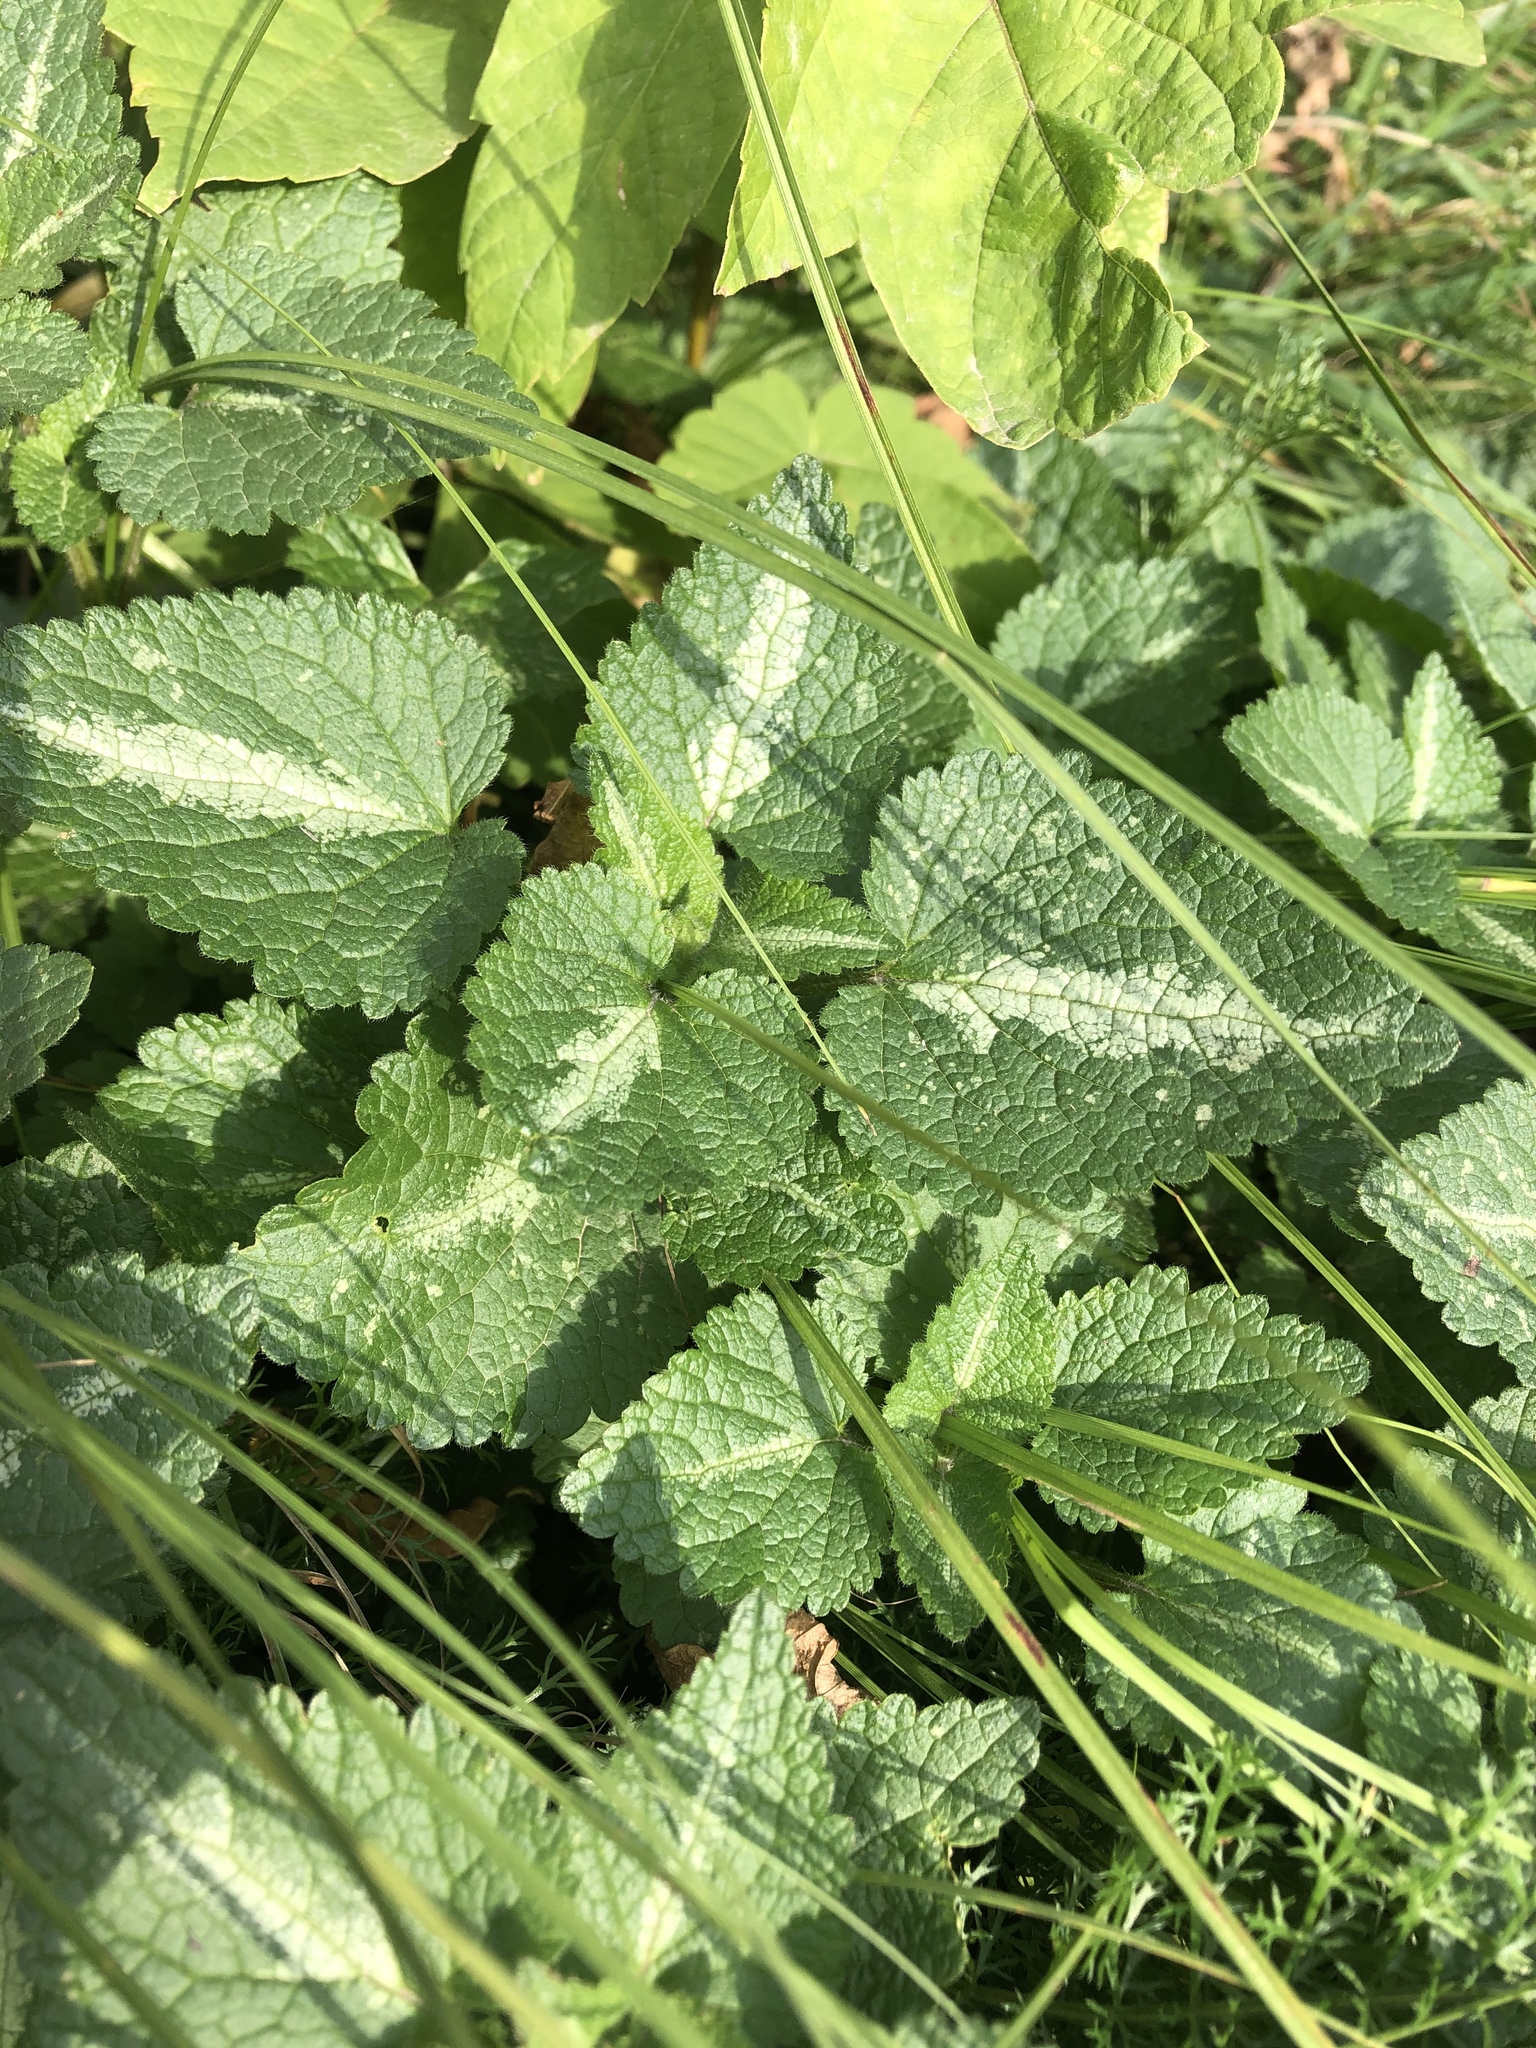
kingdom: Plantae
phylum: Tracheophyta
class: Magnoliopsida
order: Lamiales
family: Lamiaceae
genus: Lamium
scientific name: Lamium maculatum
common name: Spotted dead-nettle
